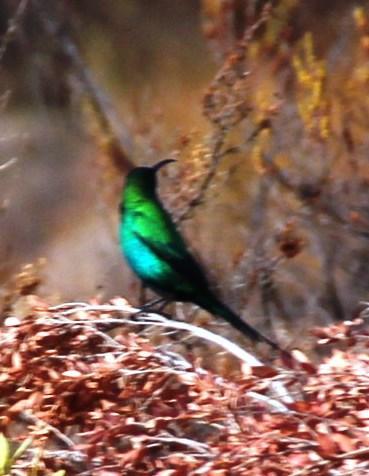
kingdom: Animalia
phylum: Chordata
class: Aves
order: Passeriformes
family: Nectariniidae
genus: Nectarinia
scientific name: Nectarinia famosa
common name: Malachite sunbird
